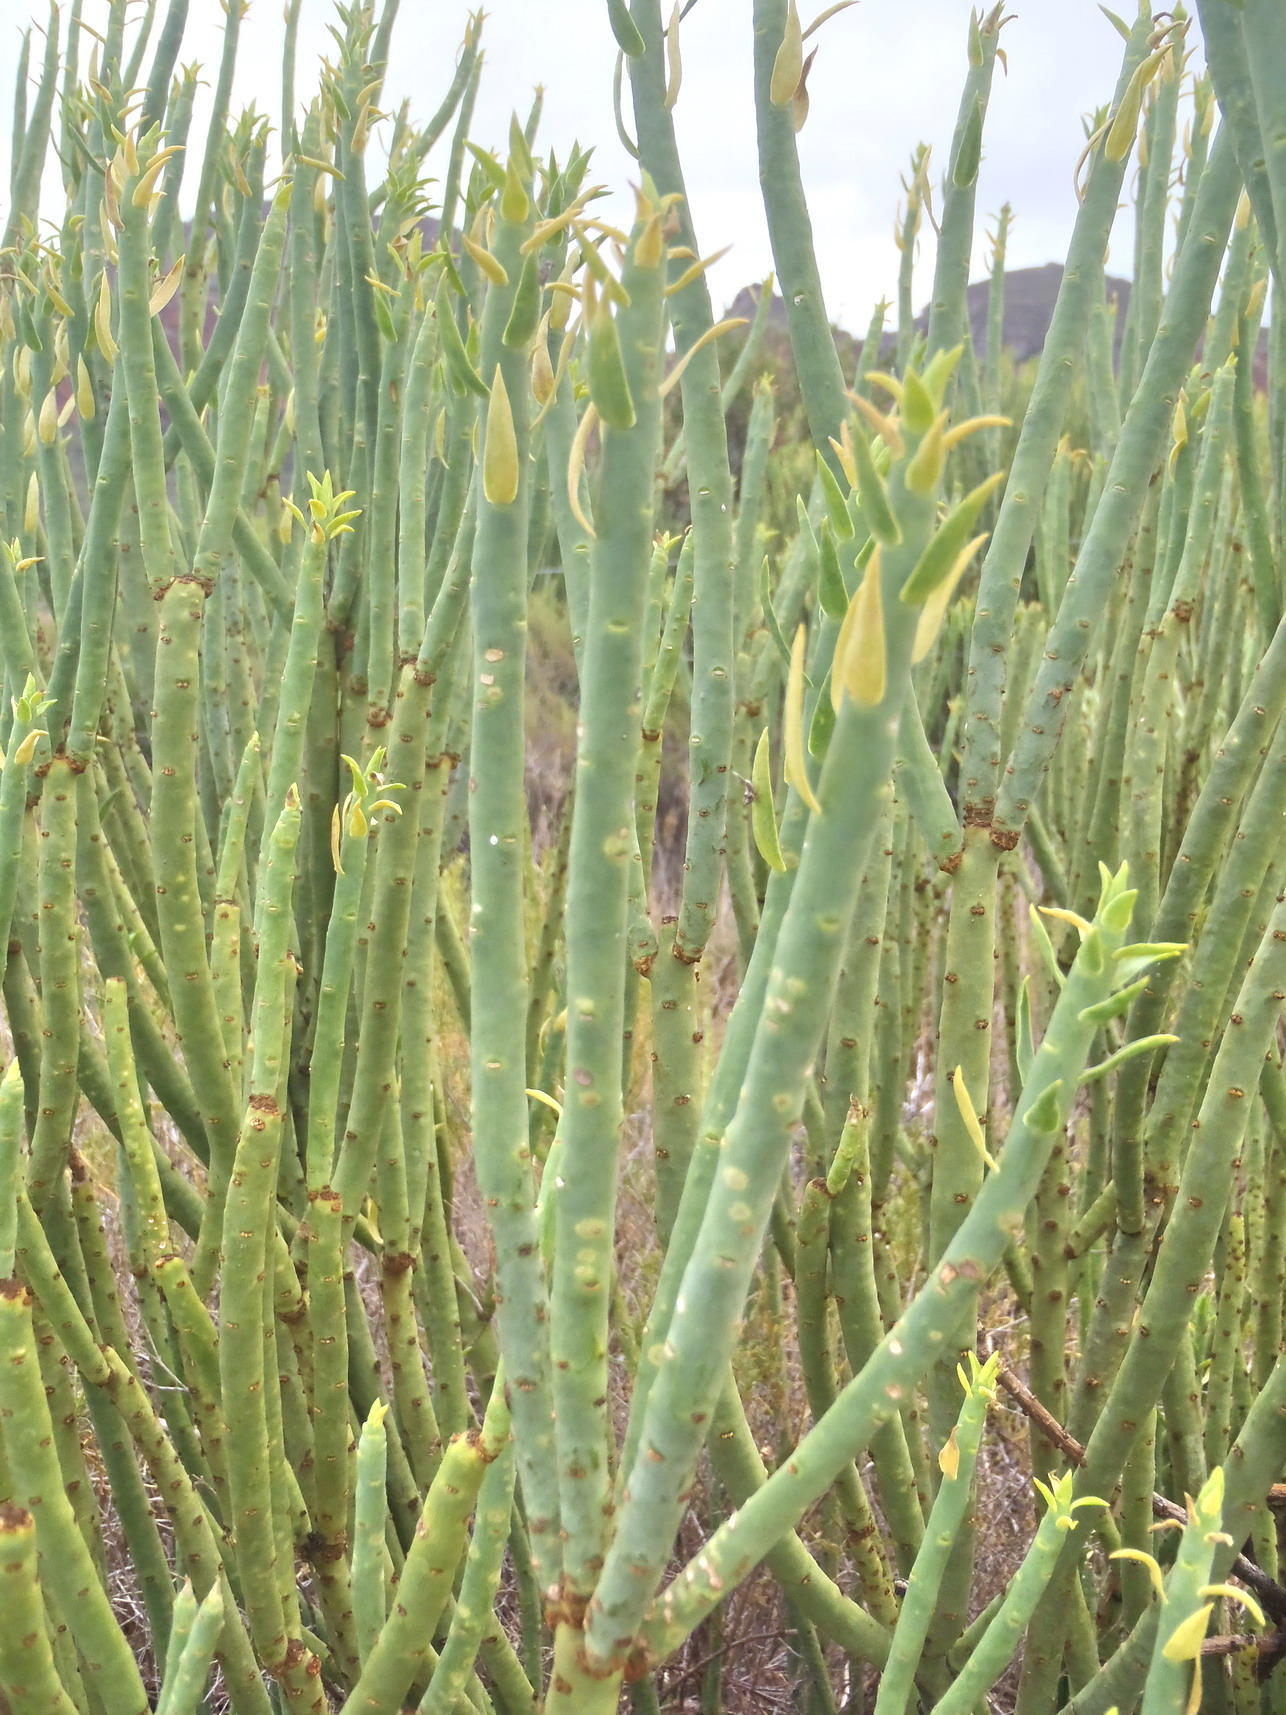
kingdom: Plantae
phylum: Tracheophyta
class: Magnoliopsida
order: Malpighiales
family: Euphorbiaceae
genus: Euphorbia
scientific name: Euphorbia mauritanica
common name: Jackal's-food
